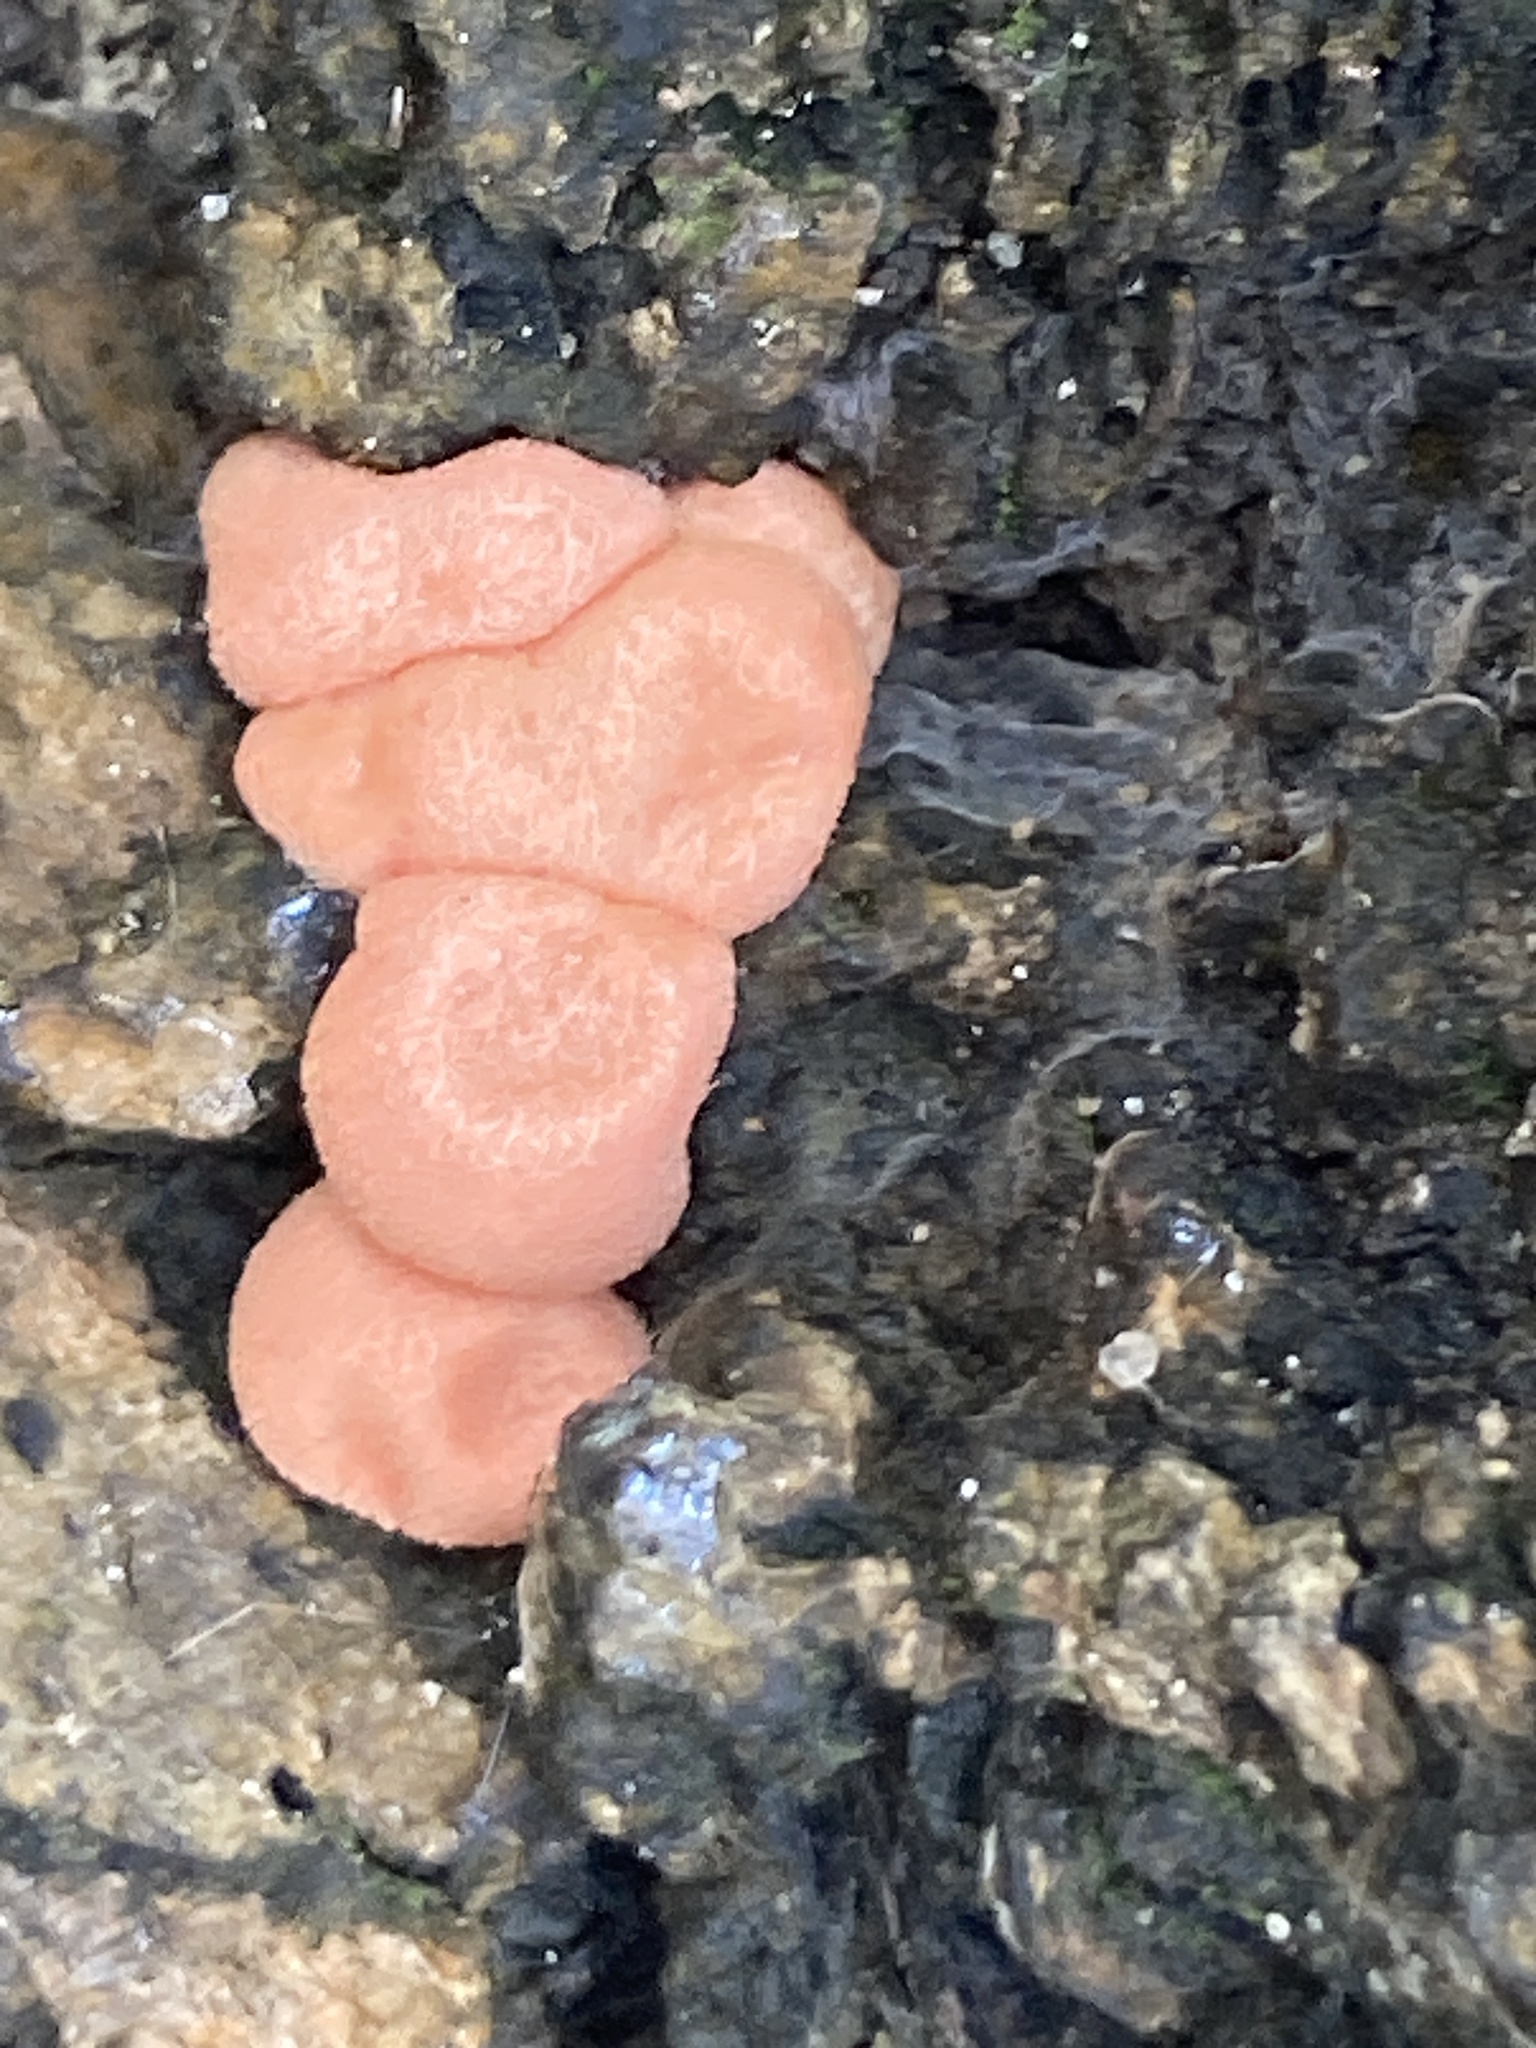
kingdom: Protozoa
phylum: Mycetozoa
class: Myxomycetes
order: Cribrariales
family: Tubiferaceae
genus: Lycogala
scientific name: Lycogala epidendrum
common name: Wolf's milk
